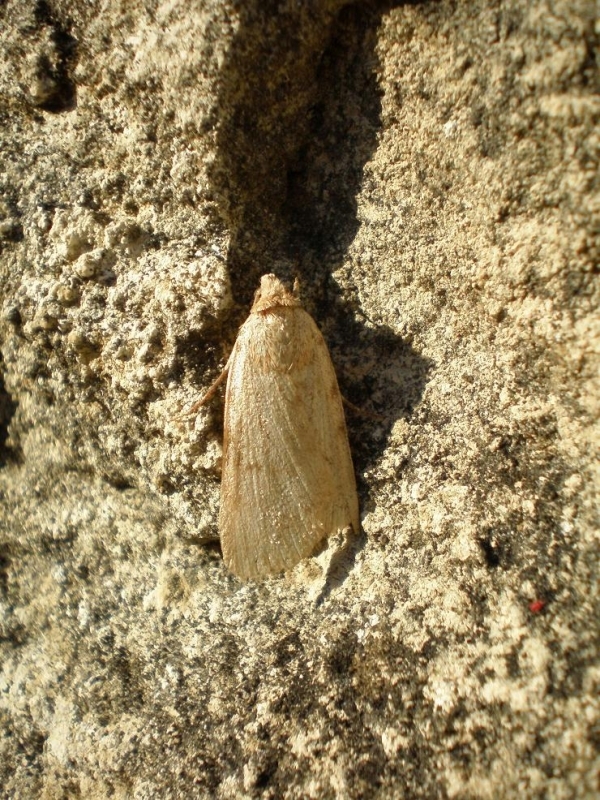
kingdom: Animalia
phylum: Arthropoda
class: Insecta
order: Lepidoptera
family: Erebidae
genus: Autophila
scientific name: Autophila dilucida
